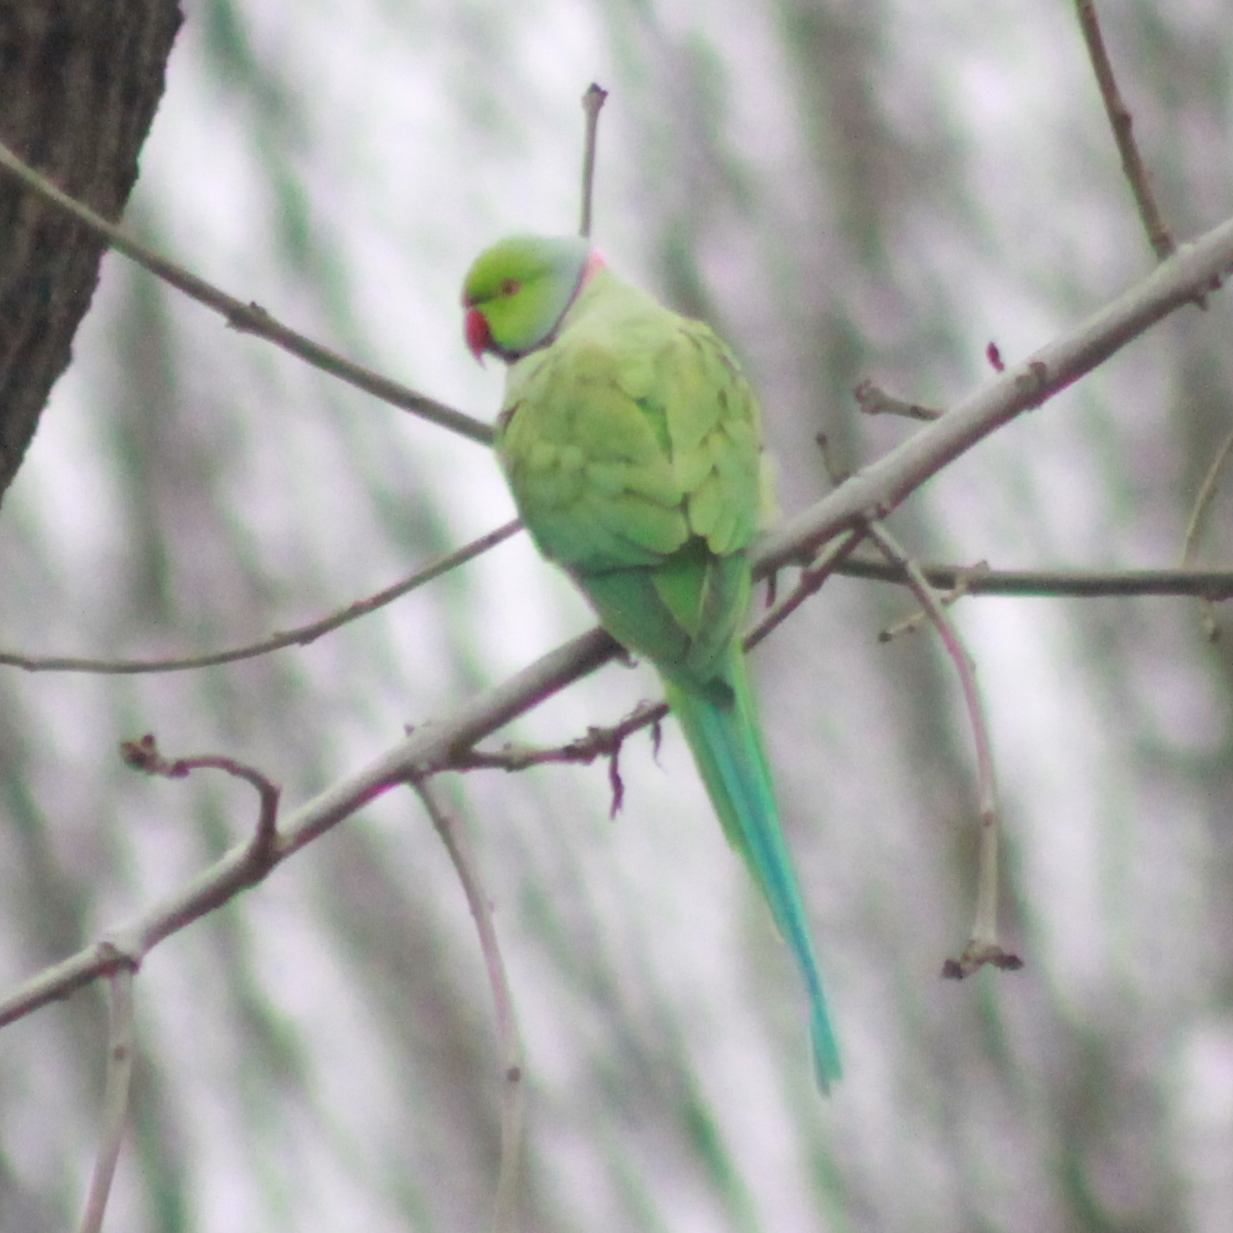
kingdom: Animalia
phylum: Chordata
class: Aves
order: Psittaciformes
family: Psittacidae
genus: Psittacula
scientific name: Psittacula krameri
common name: Rose-ringed parakeet
